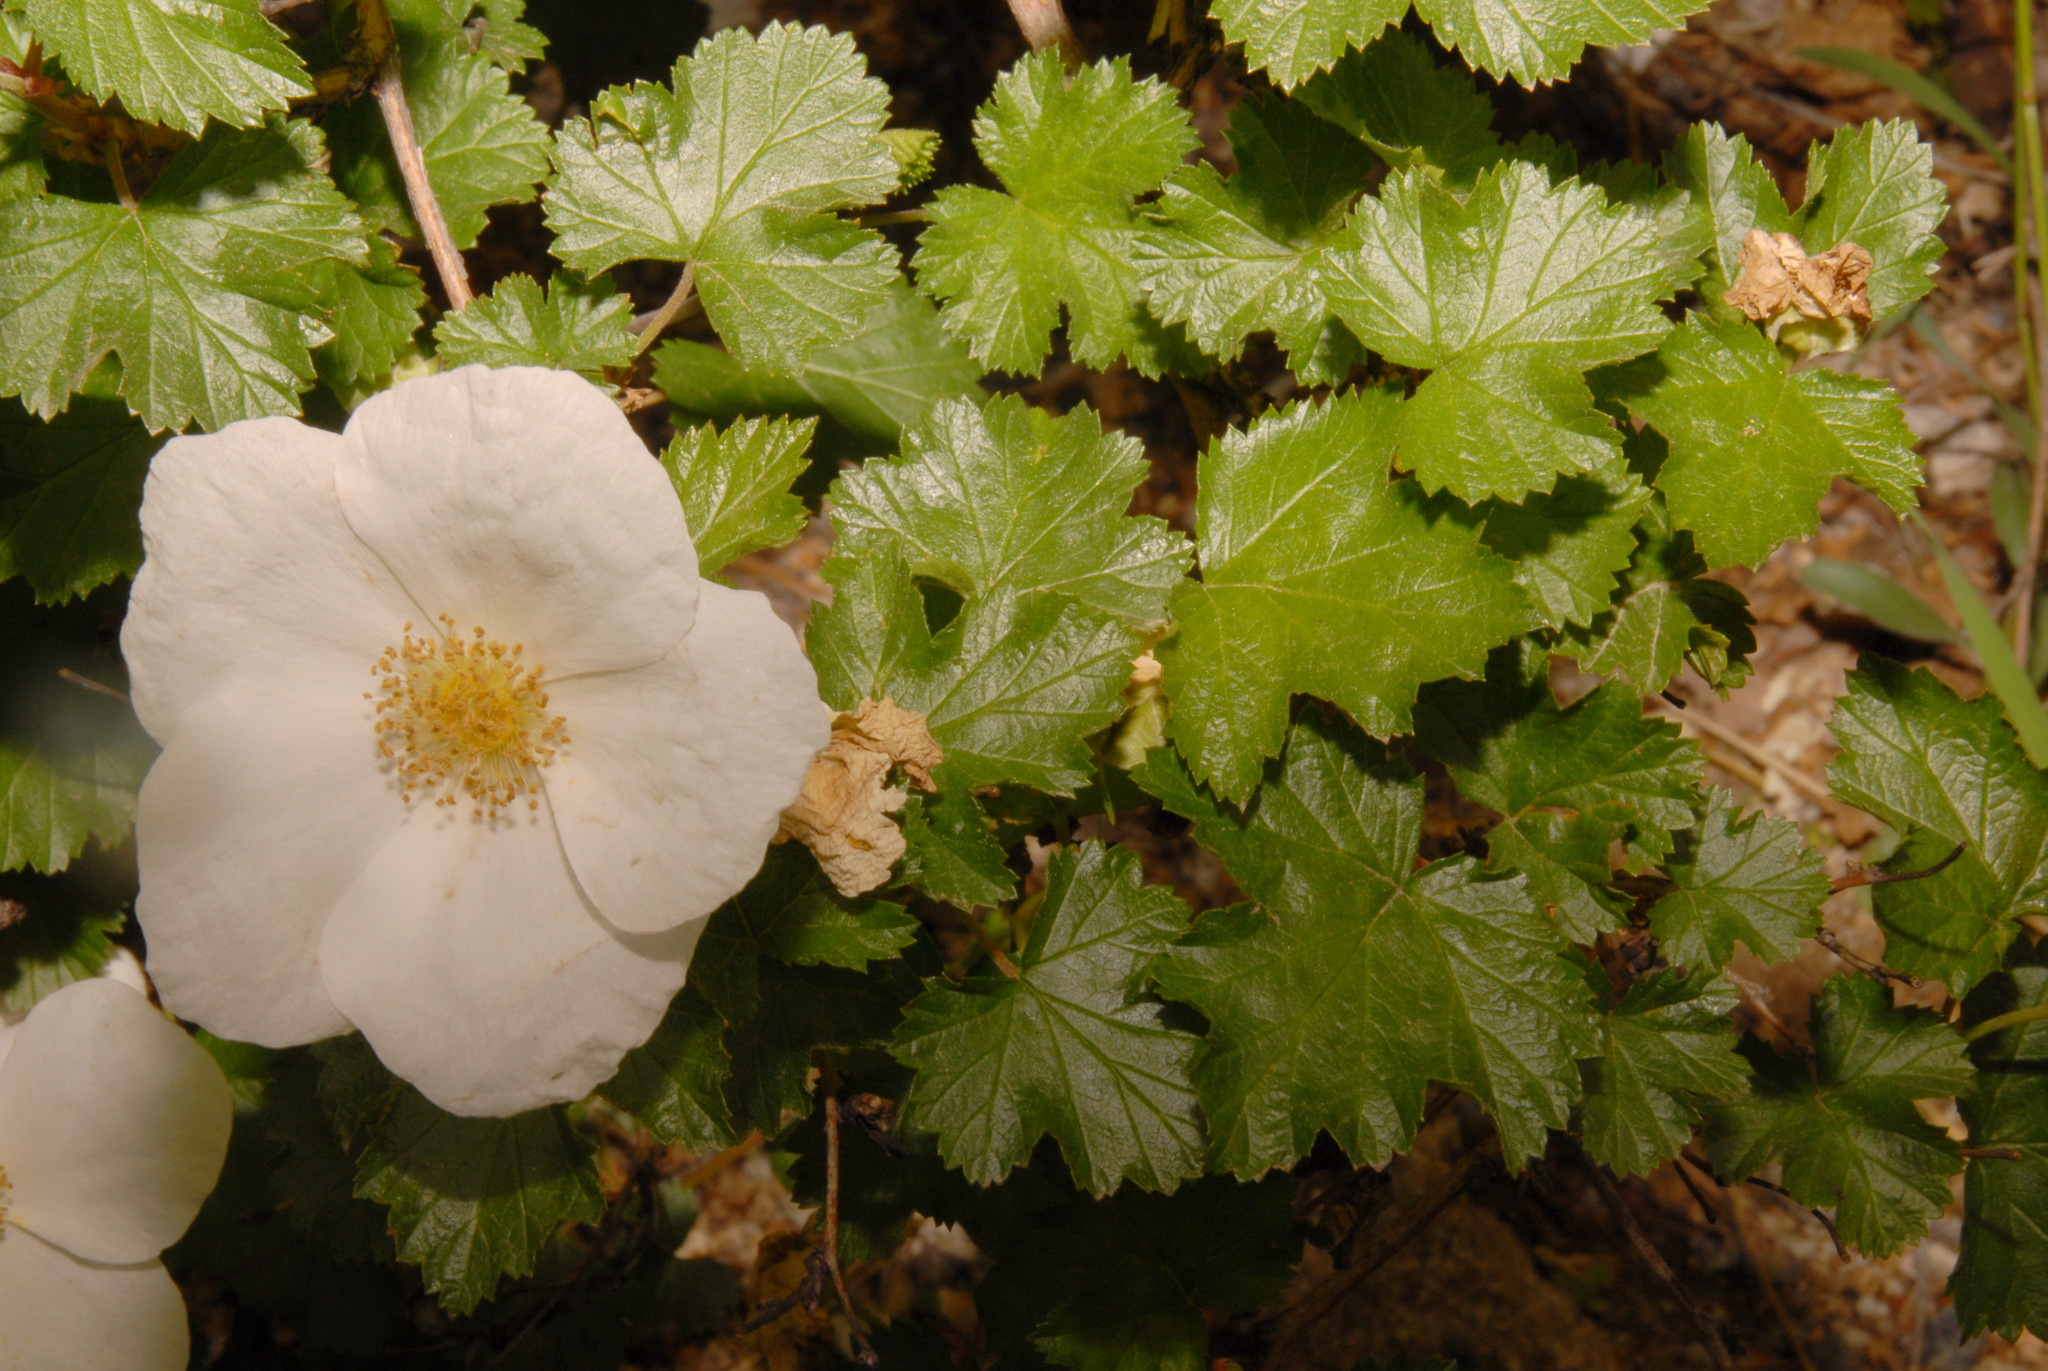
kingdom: Plantae
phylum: Tracheophyta
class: Magnoliopsida
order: Rosales
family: Rosaceae
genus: Rubus
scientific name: Rubus deliciosus
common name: Rocky mountain raspberry
